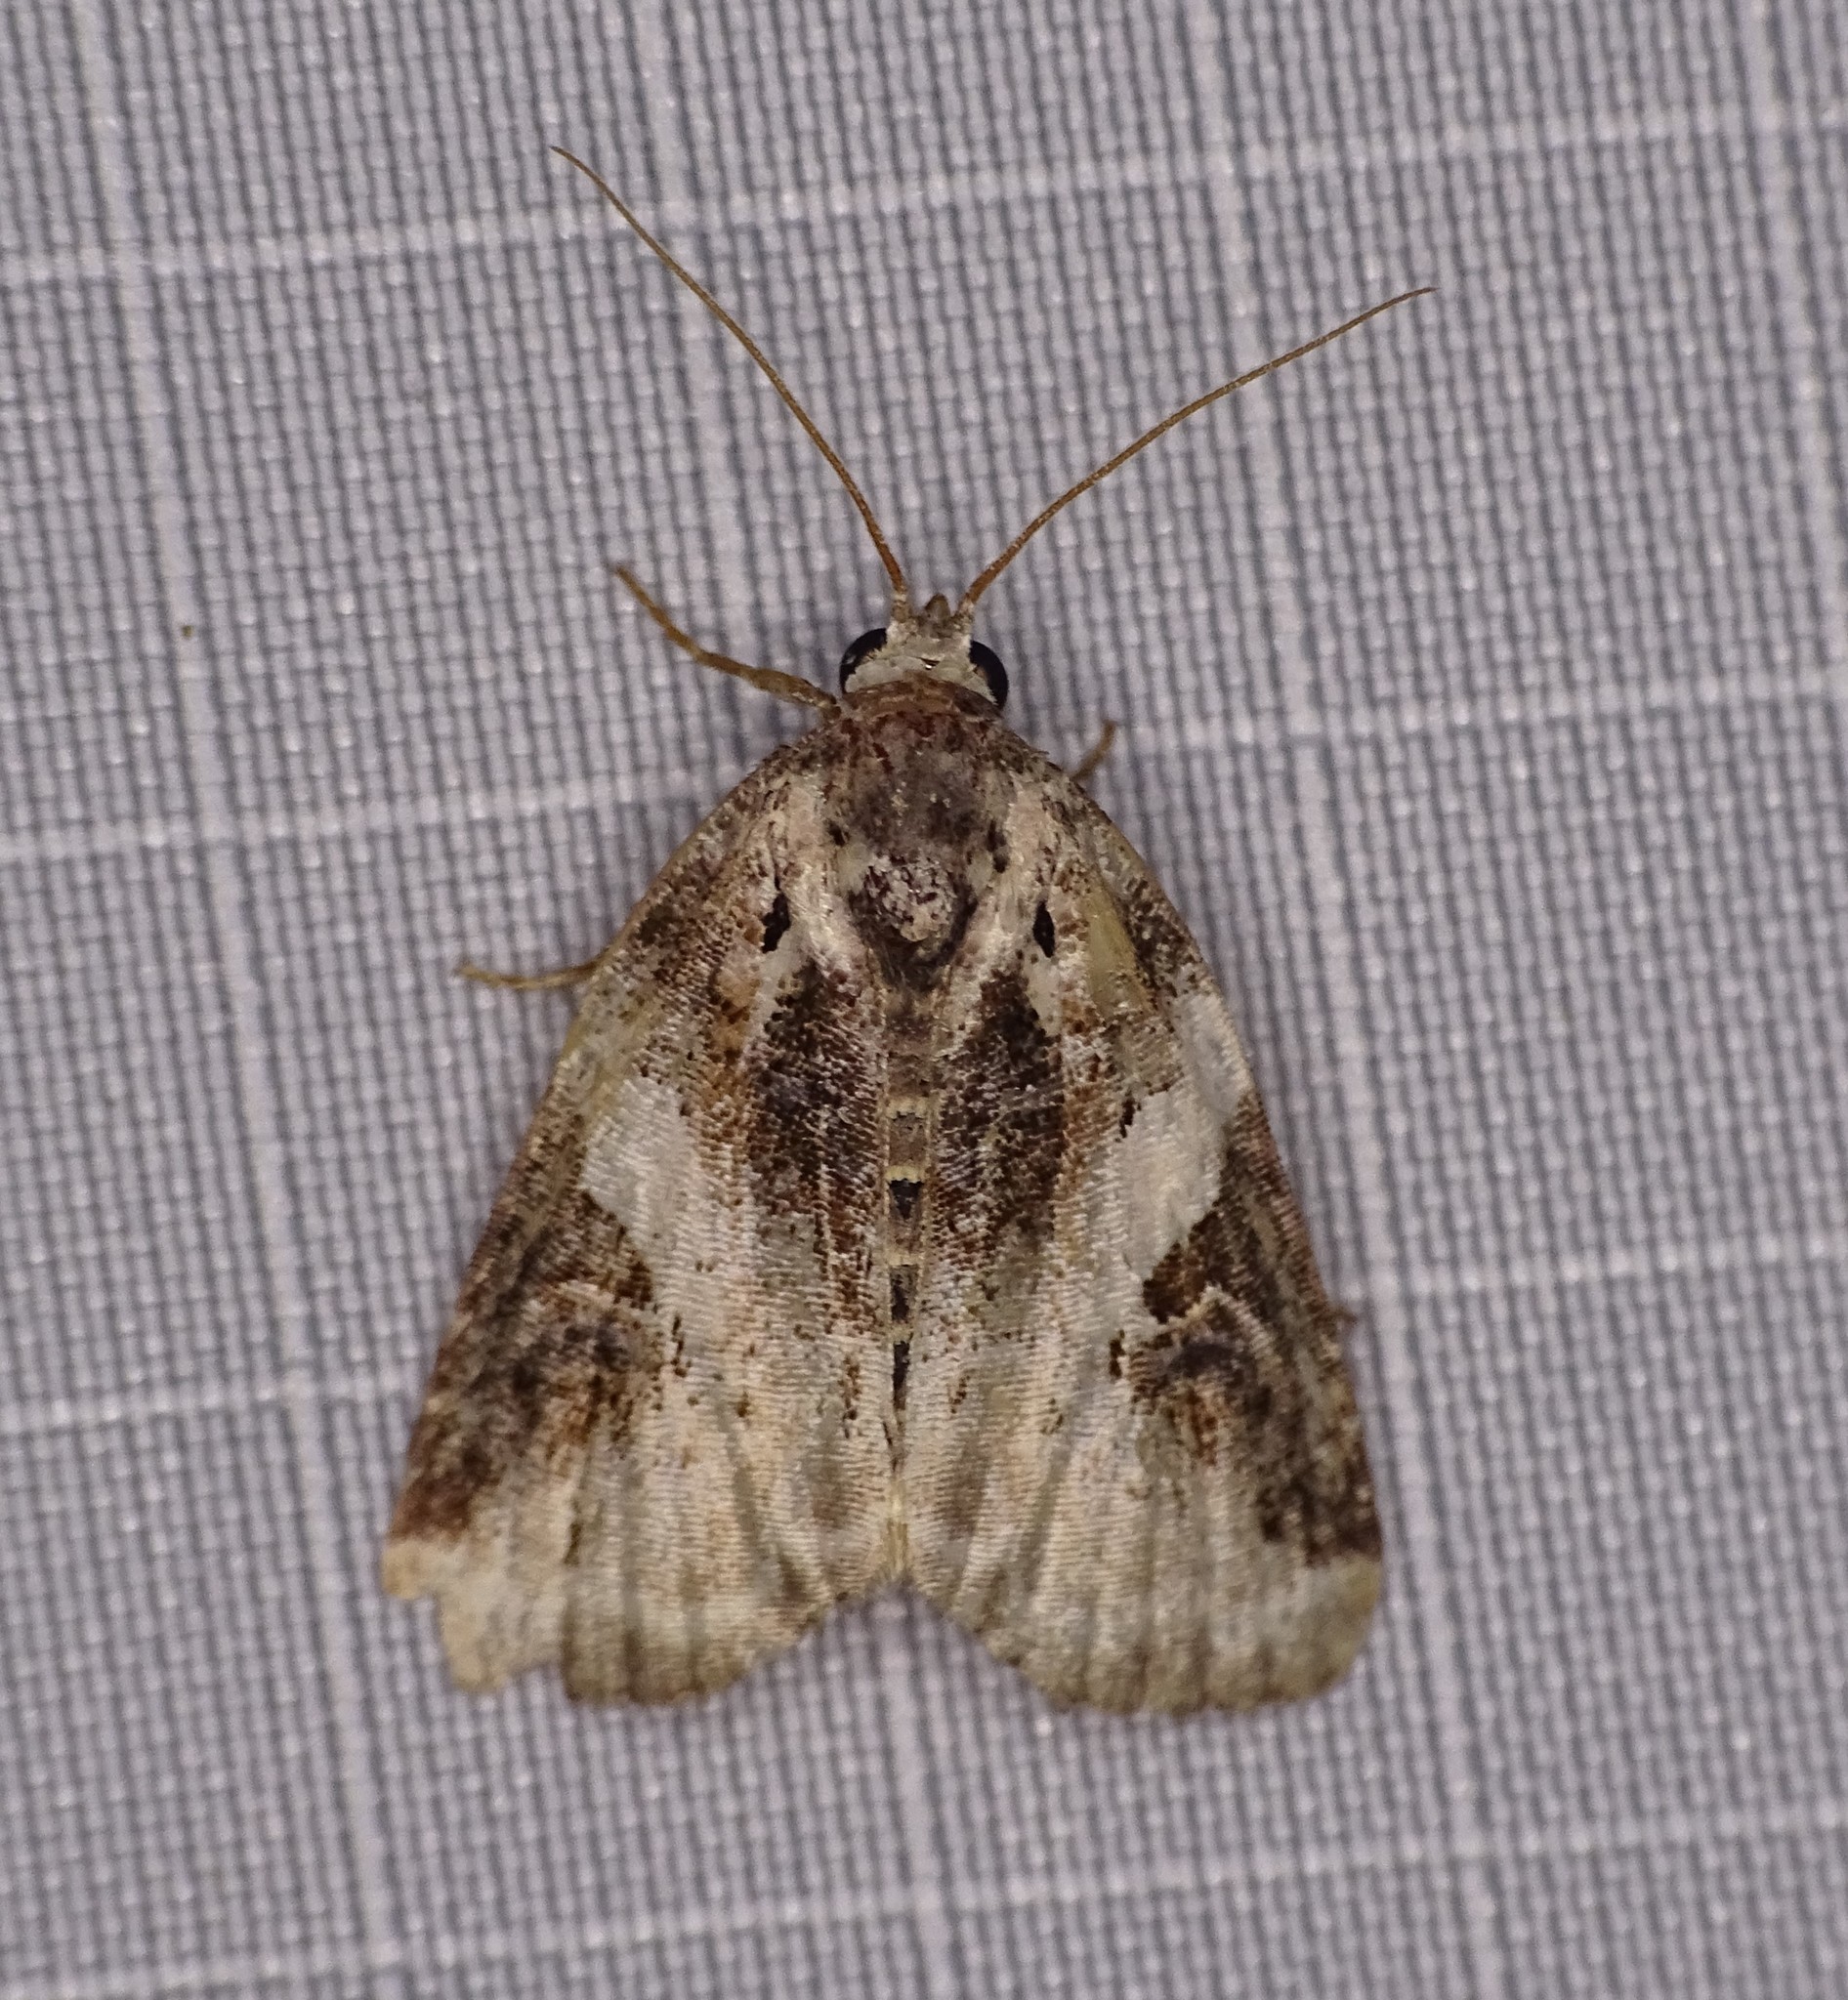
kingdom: Animalia
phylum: Arthropoda
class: Insecta
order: Lepidoptera
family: Noctuidae
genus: Pseudeustrotia
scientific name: Pseudeustrotia carneola
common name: Pink-barred lithacodia moth
